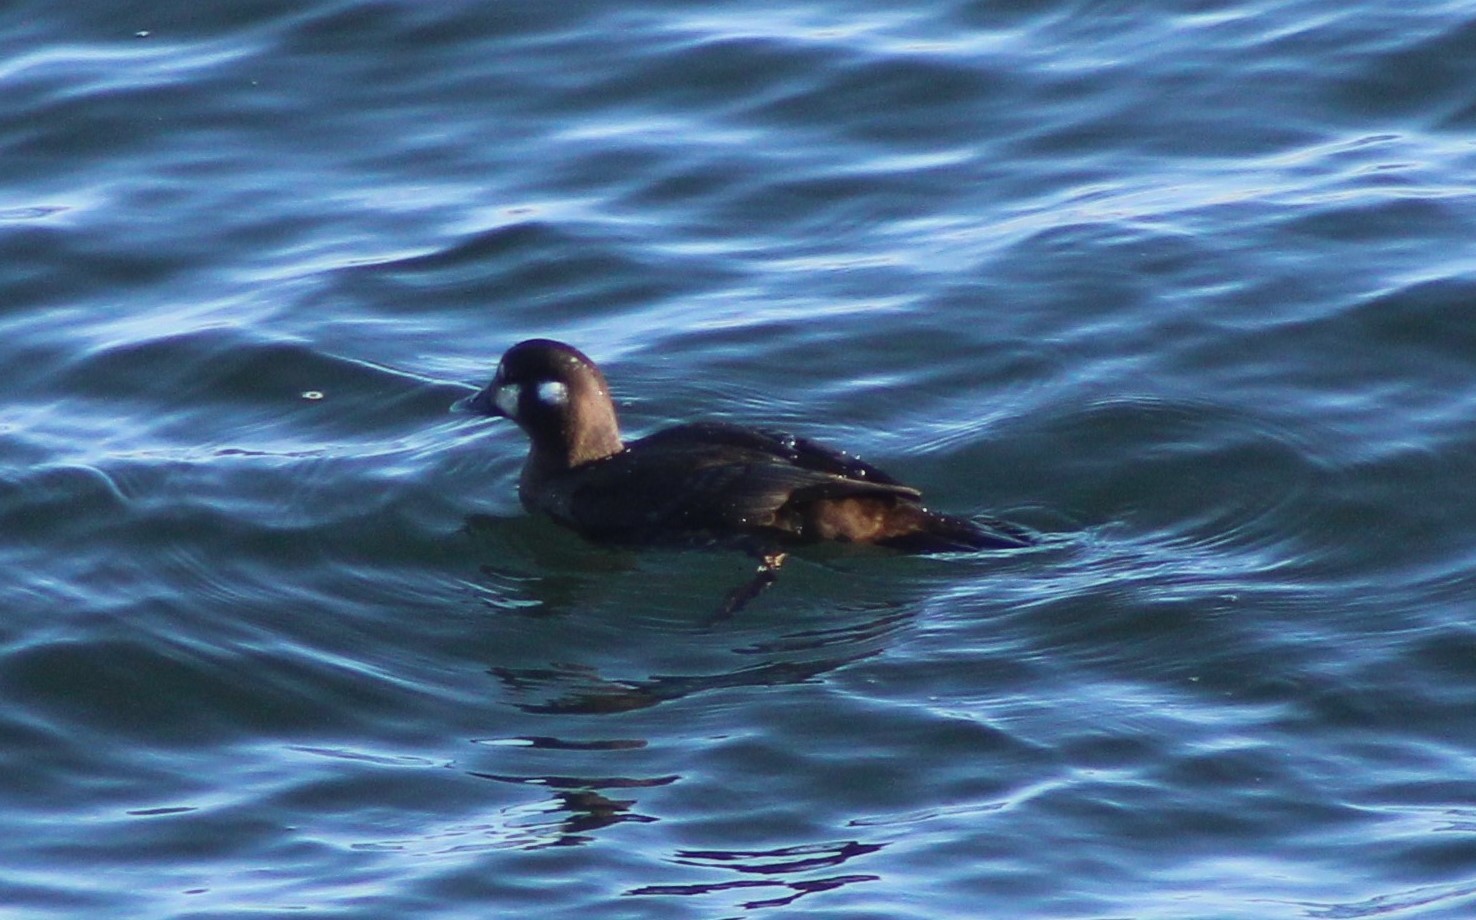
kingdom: Animalia
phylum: Chordata
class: Aves
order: Anseriformes
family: Anatidae
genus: Histrionicus
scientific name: Histrionicus histrionicus
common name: Harlequin duck
